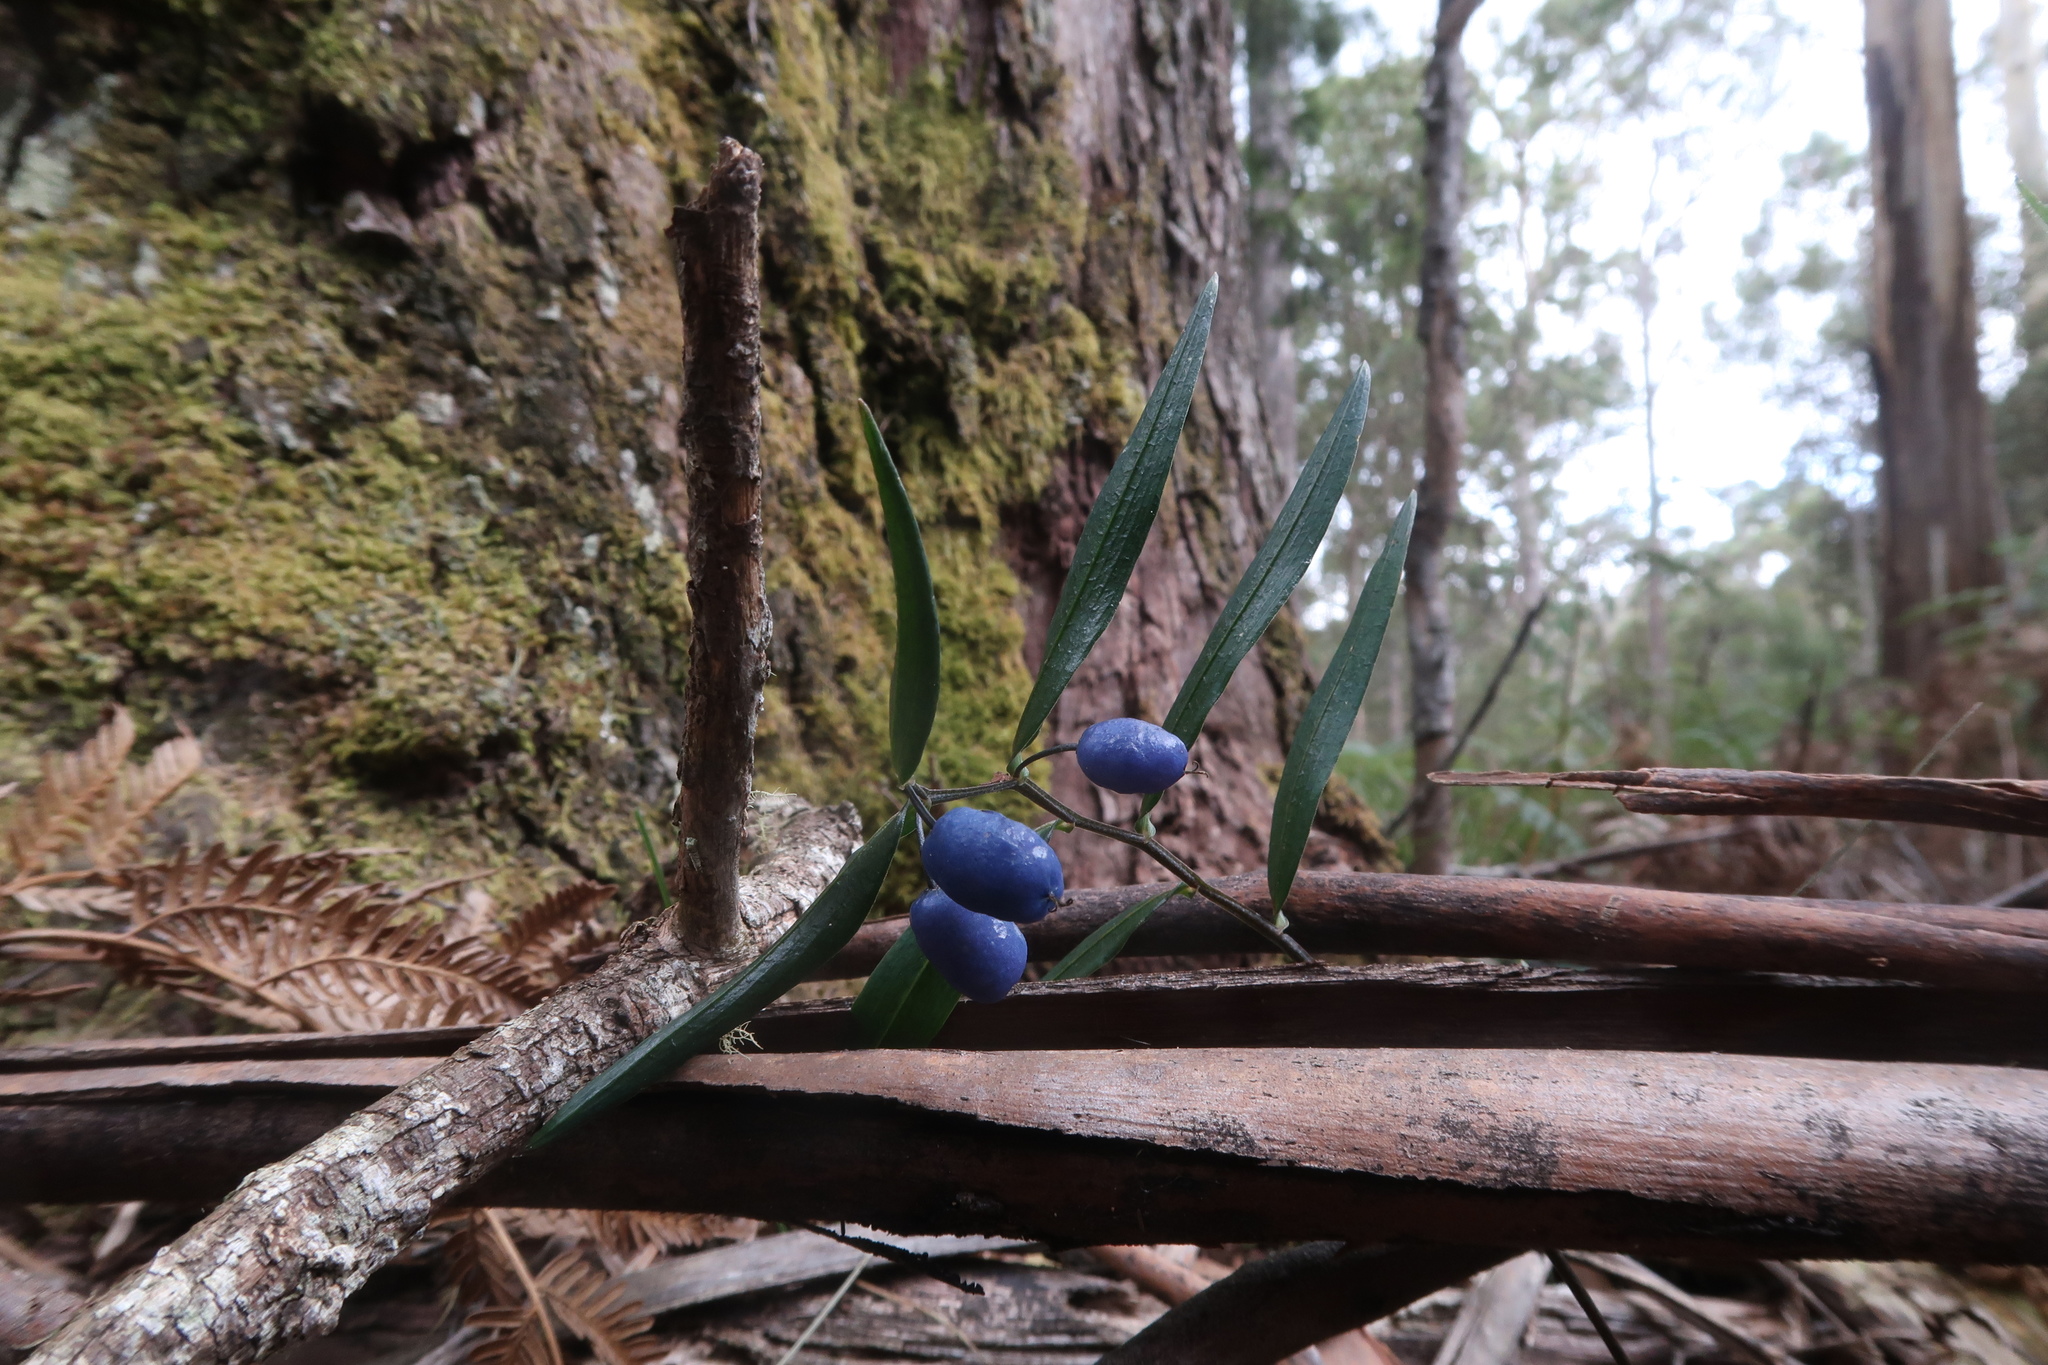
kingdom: Plantae
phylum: Tracheophyta
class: Liliopsida
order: Liliales
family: Alstroemeriaceae
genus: Drymophila
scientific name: Drymophila cyanocarpa
